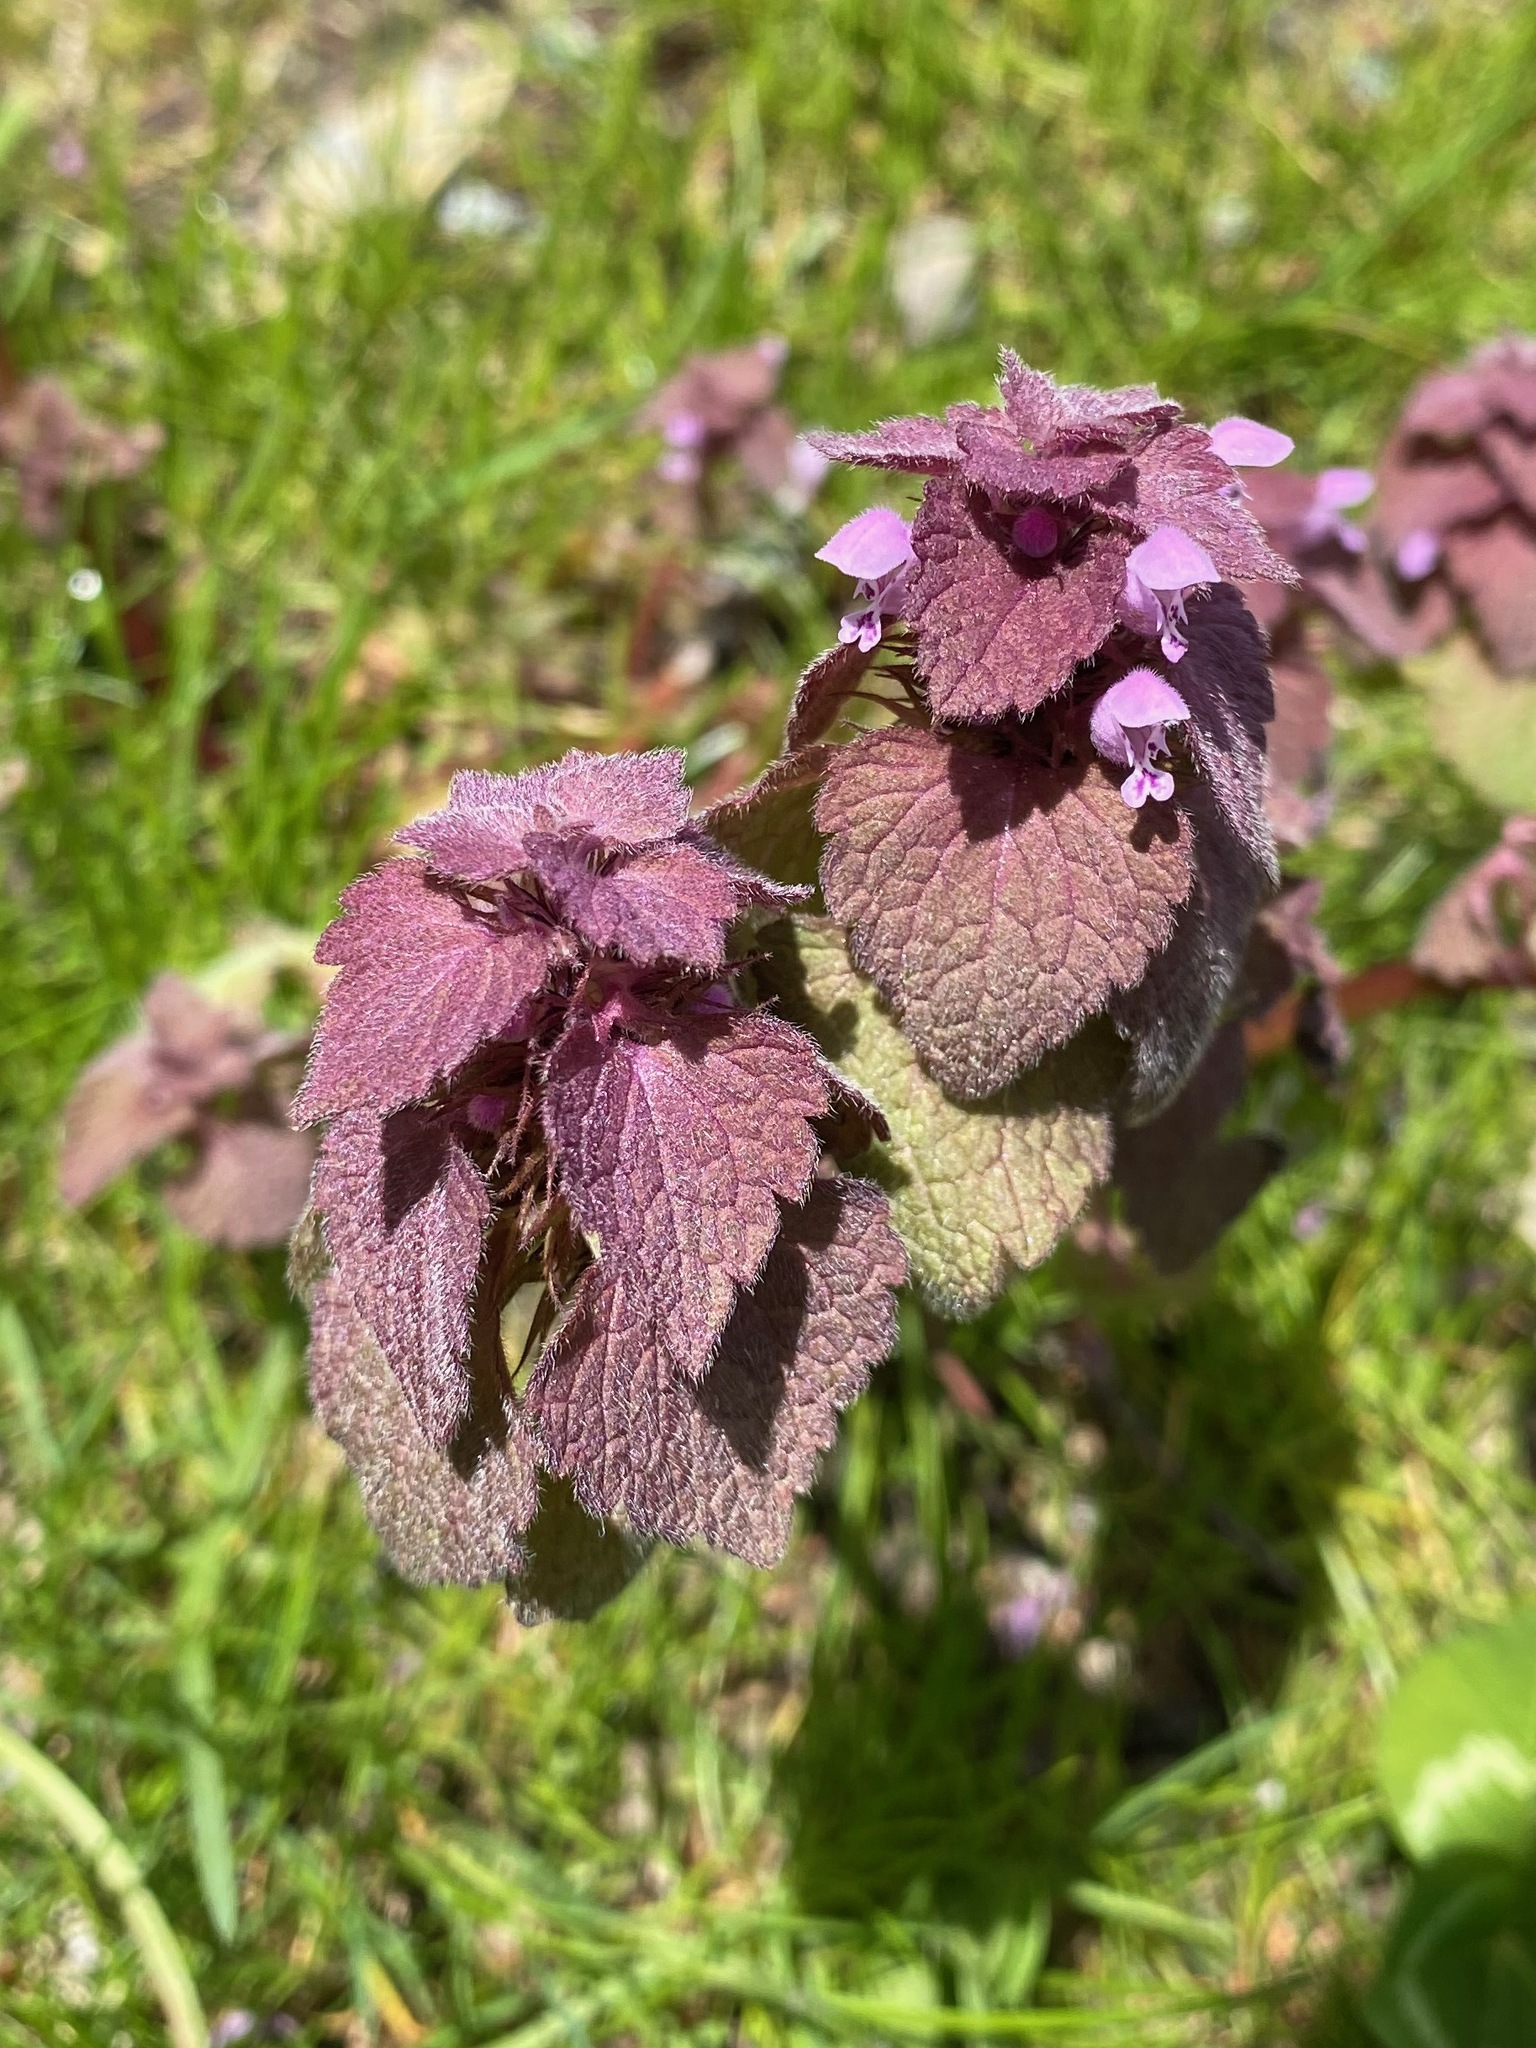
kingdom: Plantae
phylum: Tracheophyta
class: Magnoliopsida
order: Lamiales
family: Lamiaceae
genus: Lamium
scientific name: Lamium purpureum
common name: Red dead-nettle
